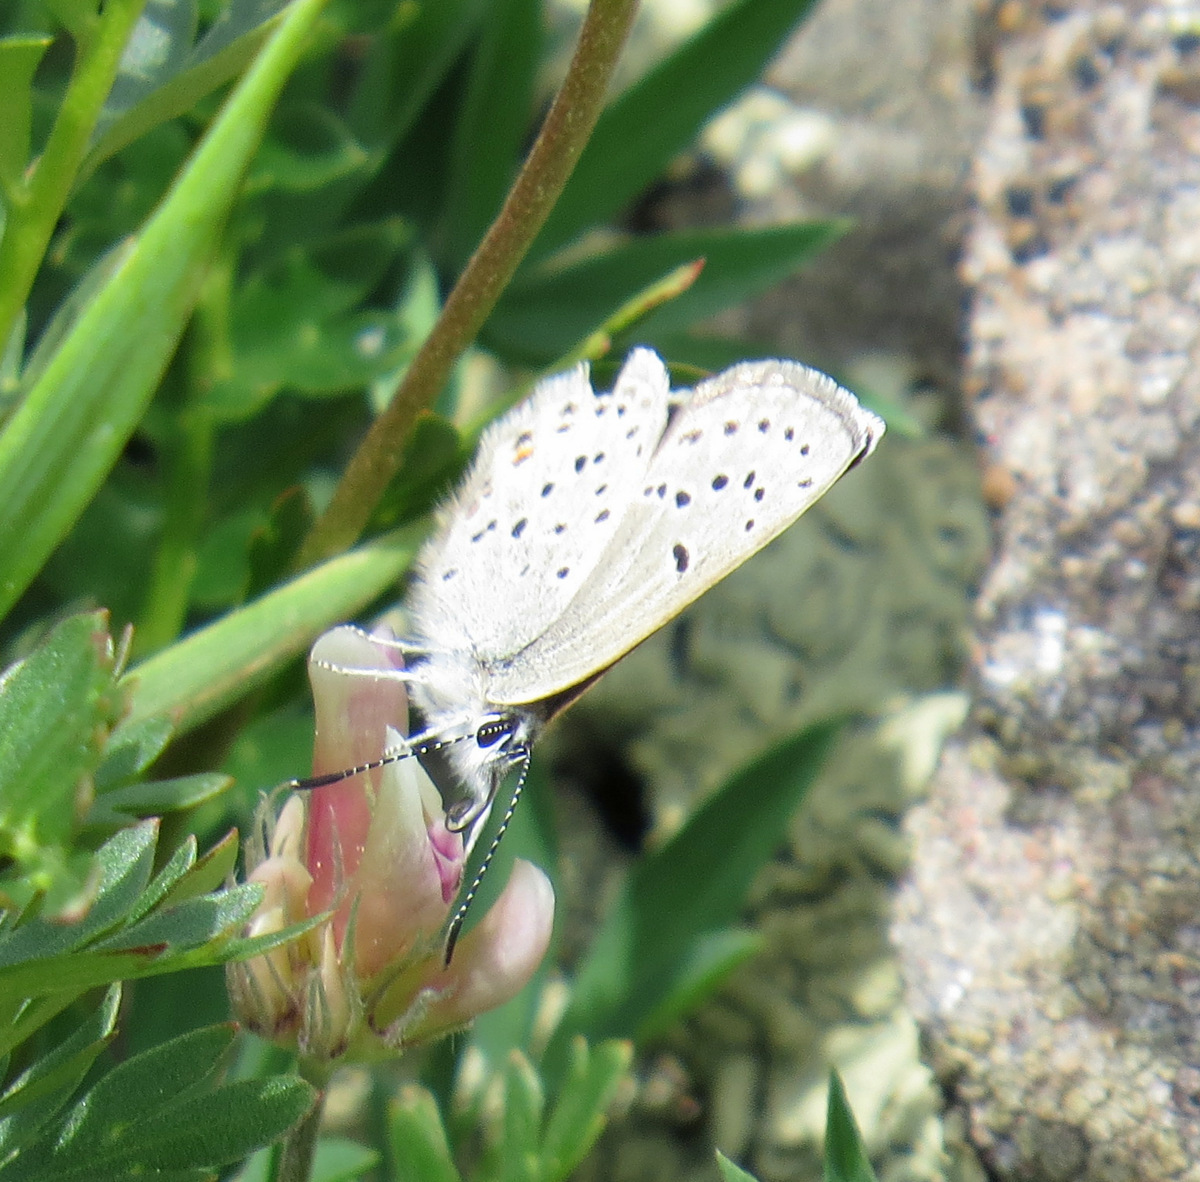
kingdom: Animalia
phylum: Arthropoda
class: Insecta
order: Lepidoptera
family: Lycaenidae
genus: Icaricia
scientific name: Icaricia saepiolus
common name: Greenish blue
